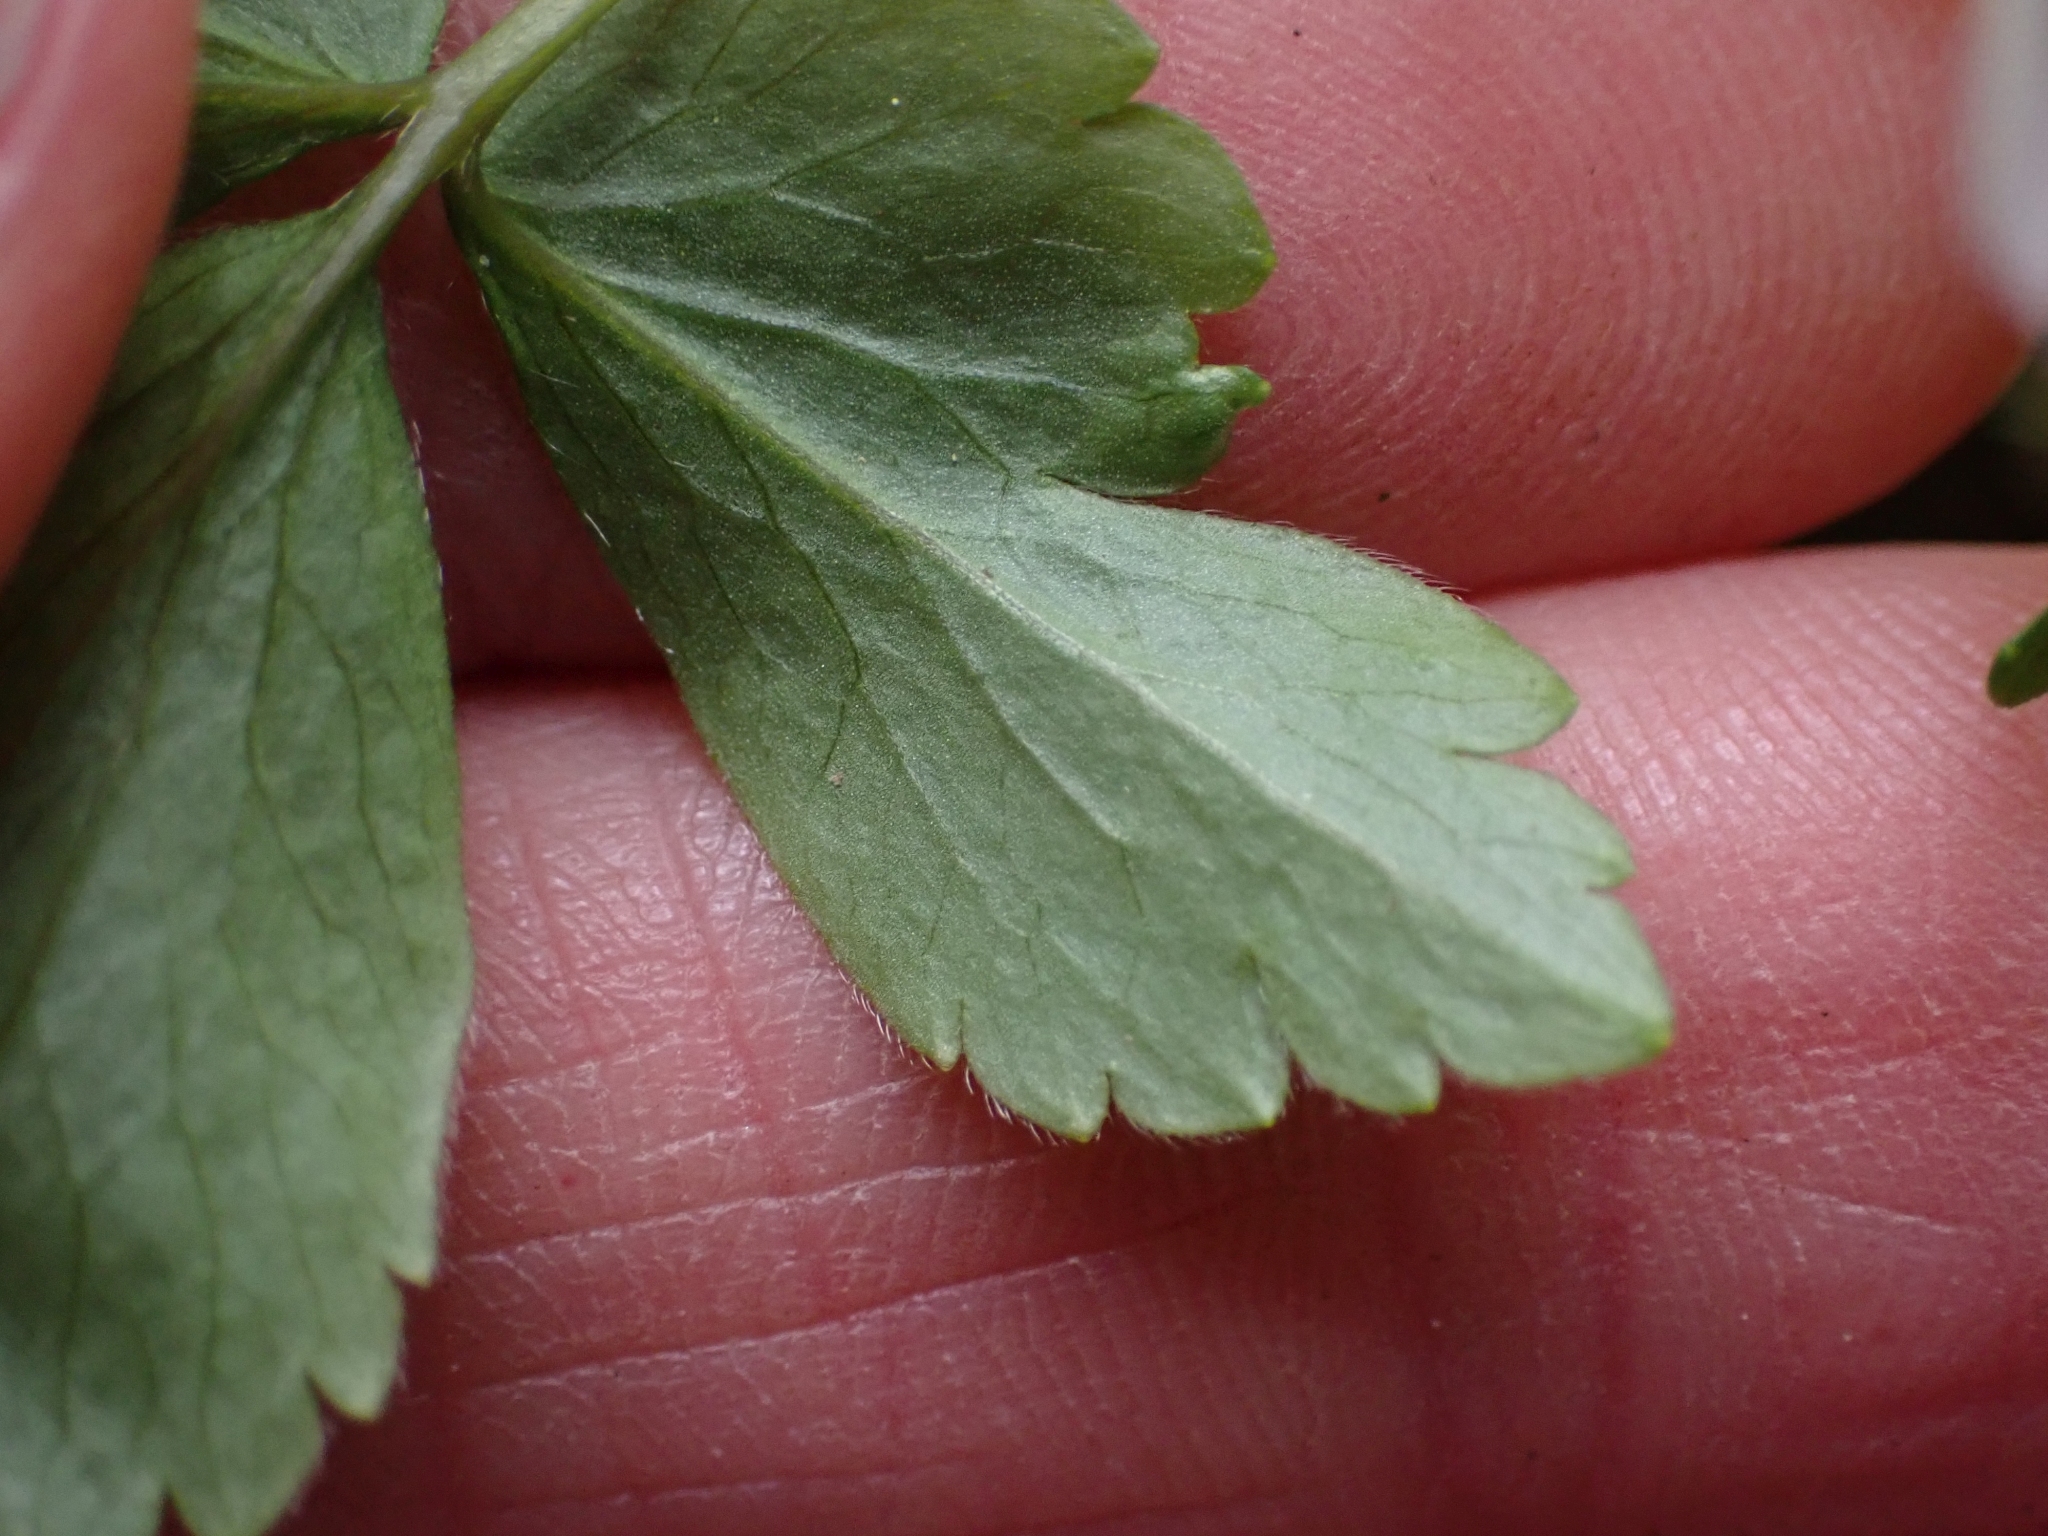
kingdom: Plantae
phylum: Tracheophyta
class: Magnoliopsida
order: Ranunculales
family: Ranunculaceae
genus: Anemone
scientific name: Anemone
